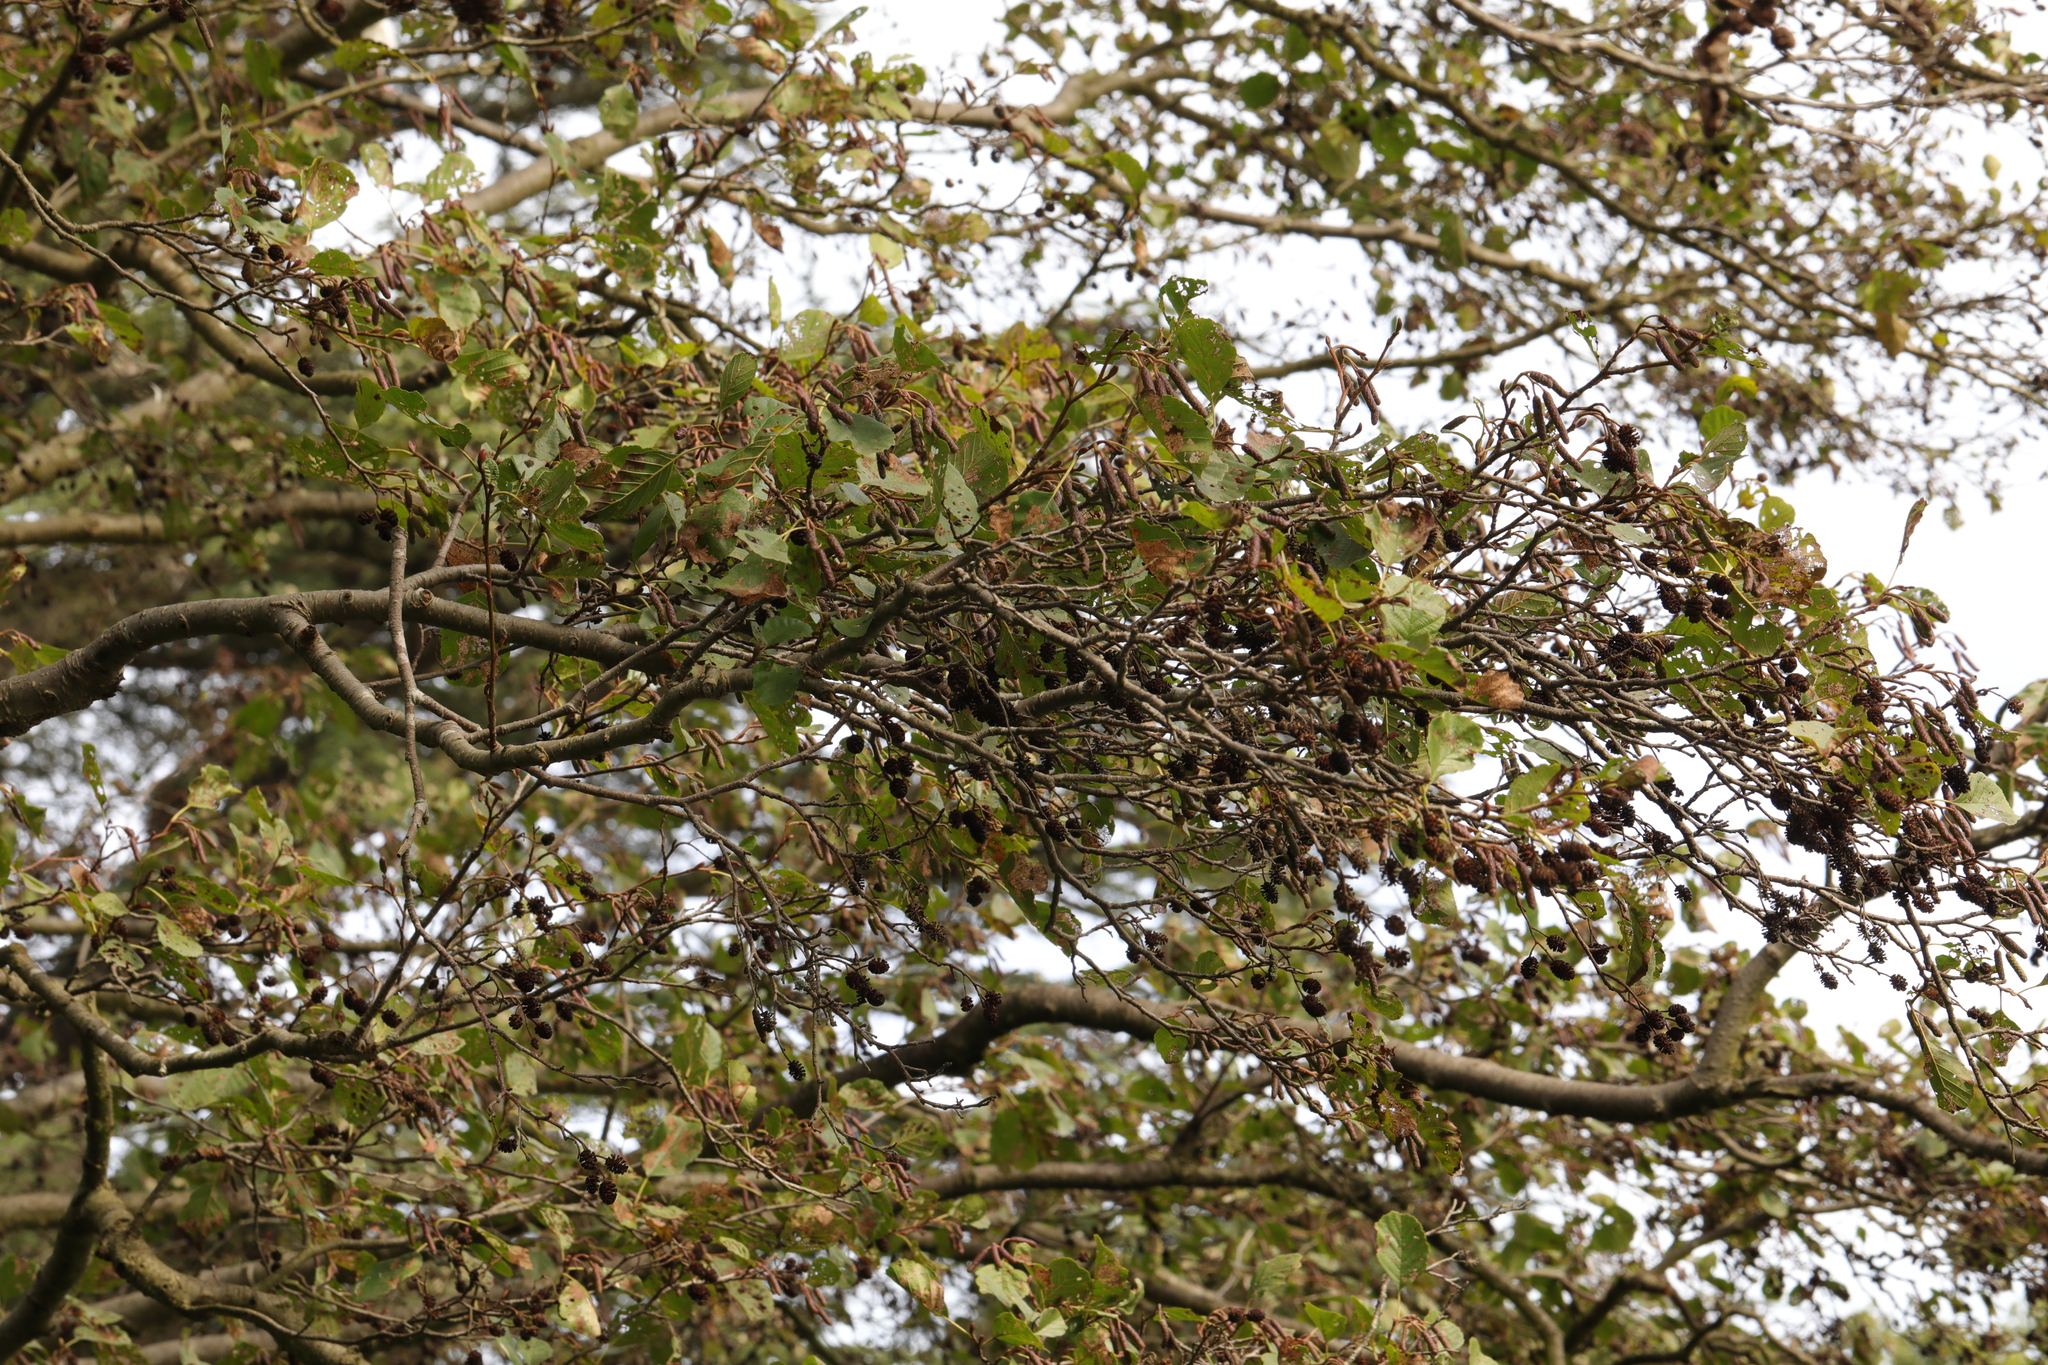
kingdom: Plantae
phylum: Tracheophyta
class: Magnoliopsida
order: Fagales
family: Betulaceae
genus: Alnus
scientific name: Alnus glutinosa
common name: Black alder
